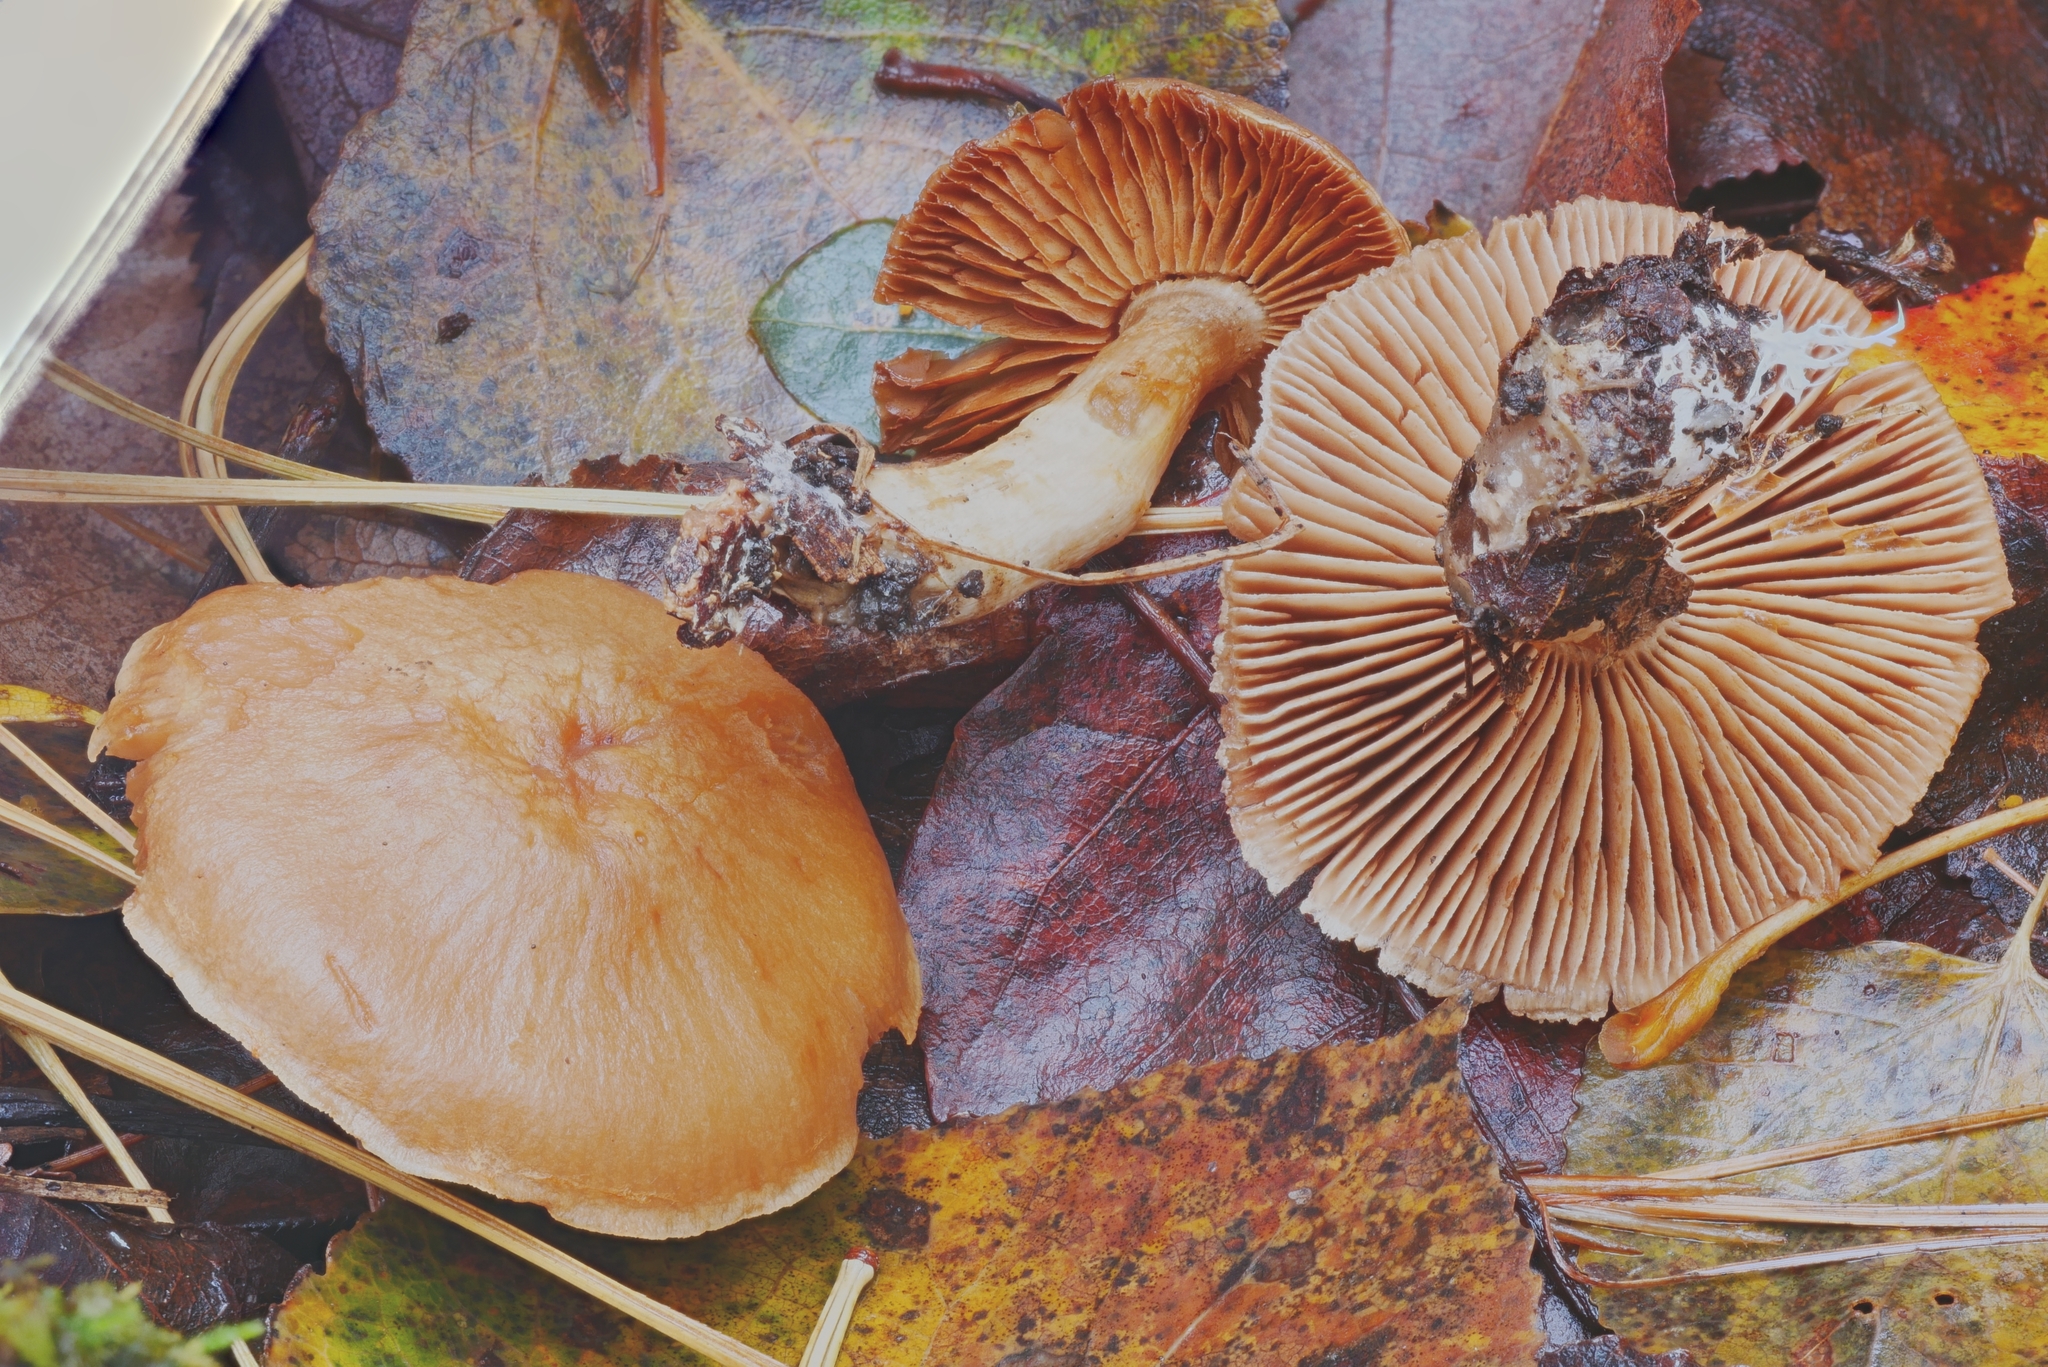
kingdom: Fungi
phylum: Basidiomycota
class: Agaricomycetes
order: Agaricales
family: Cortinariaceae
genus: Cortinarius
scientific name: Cortinarius diffamatus
